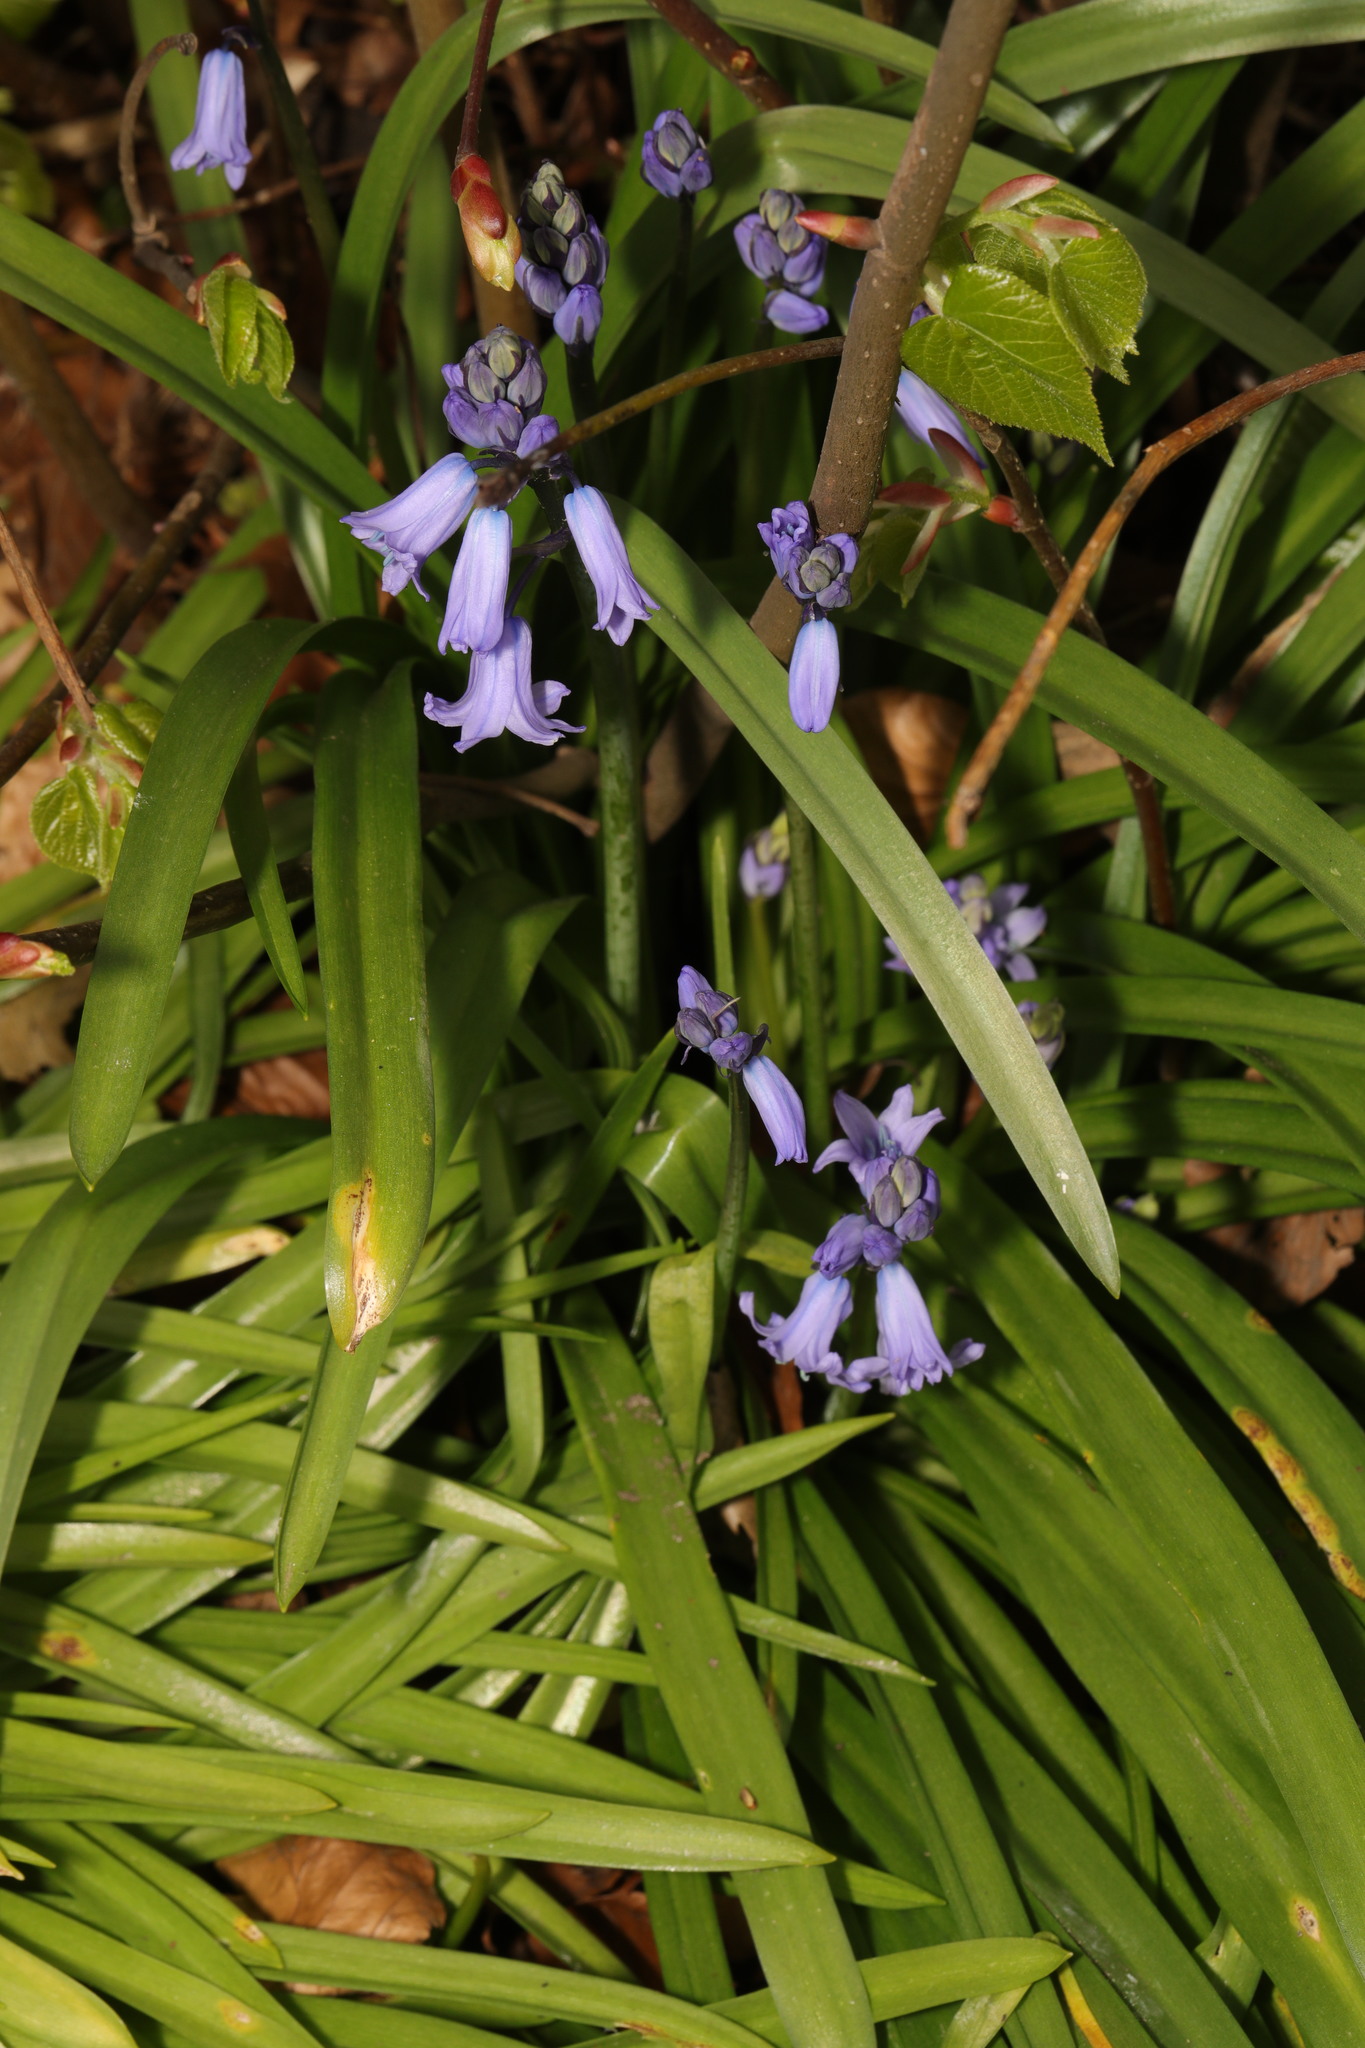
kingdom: Plantae
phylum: Tracheophyta
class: Liliopsida
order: Asparagales
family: Asparagaceae
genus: Hyacinthoides
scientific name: Hyacinthoides massartiana
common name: Hyacinthoides
